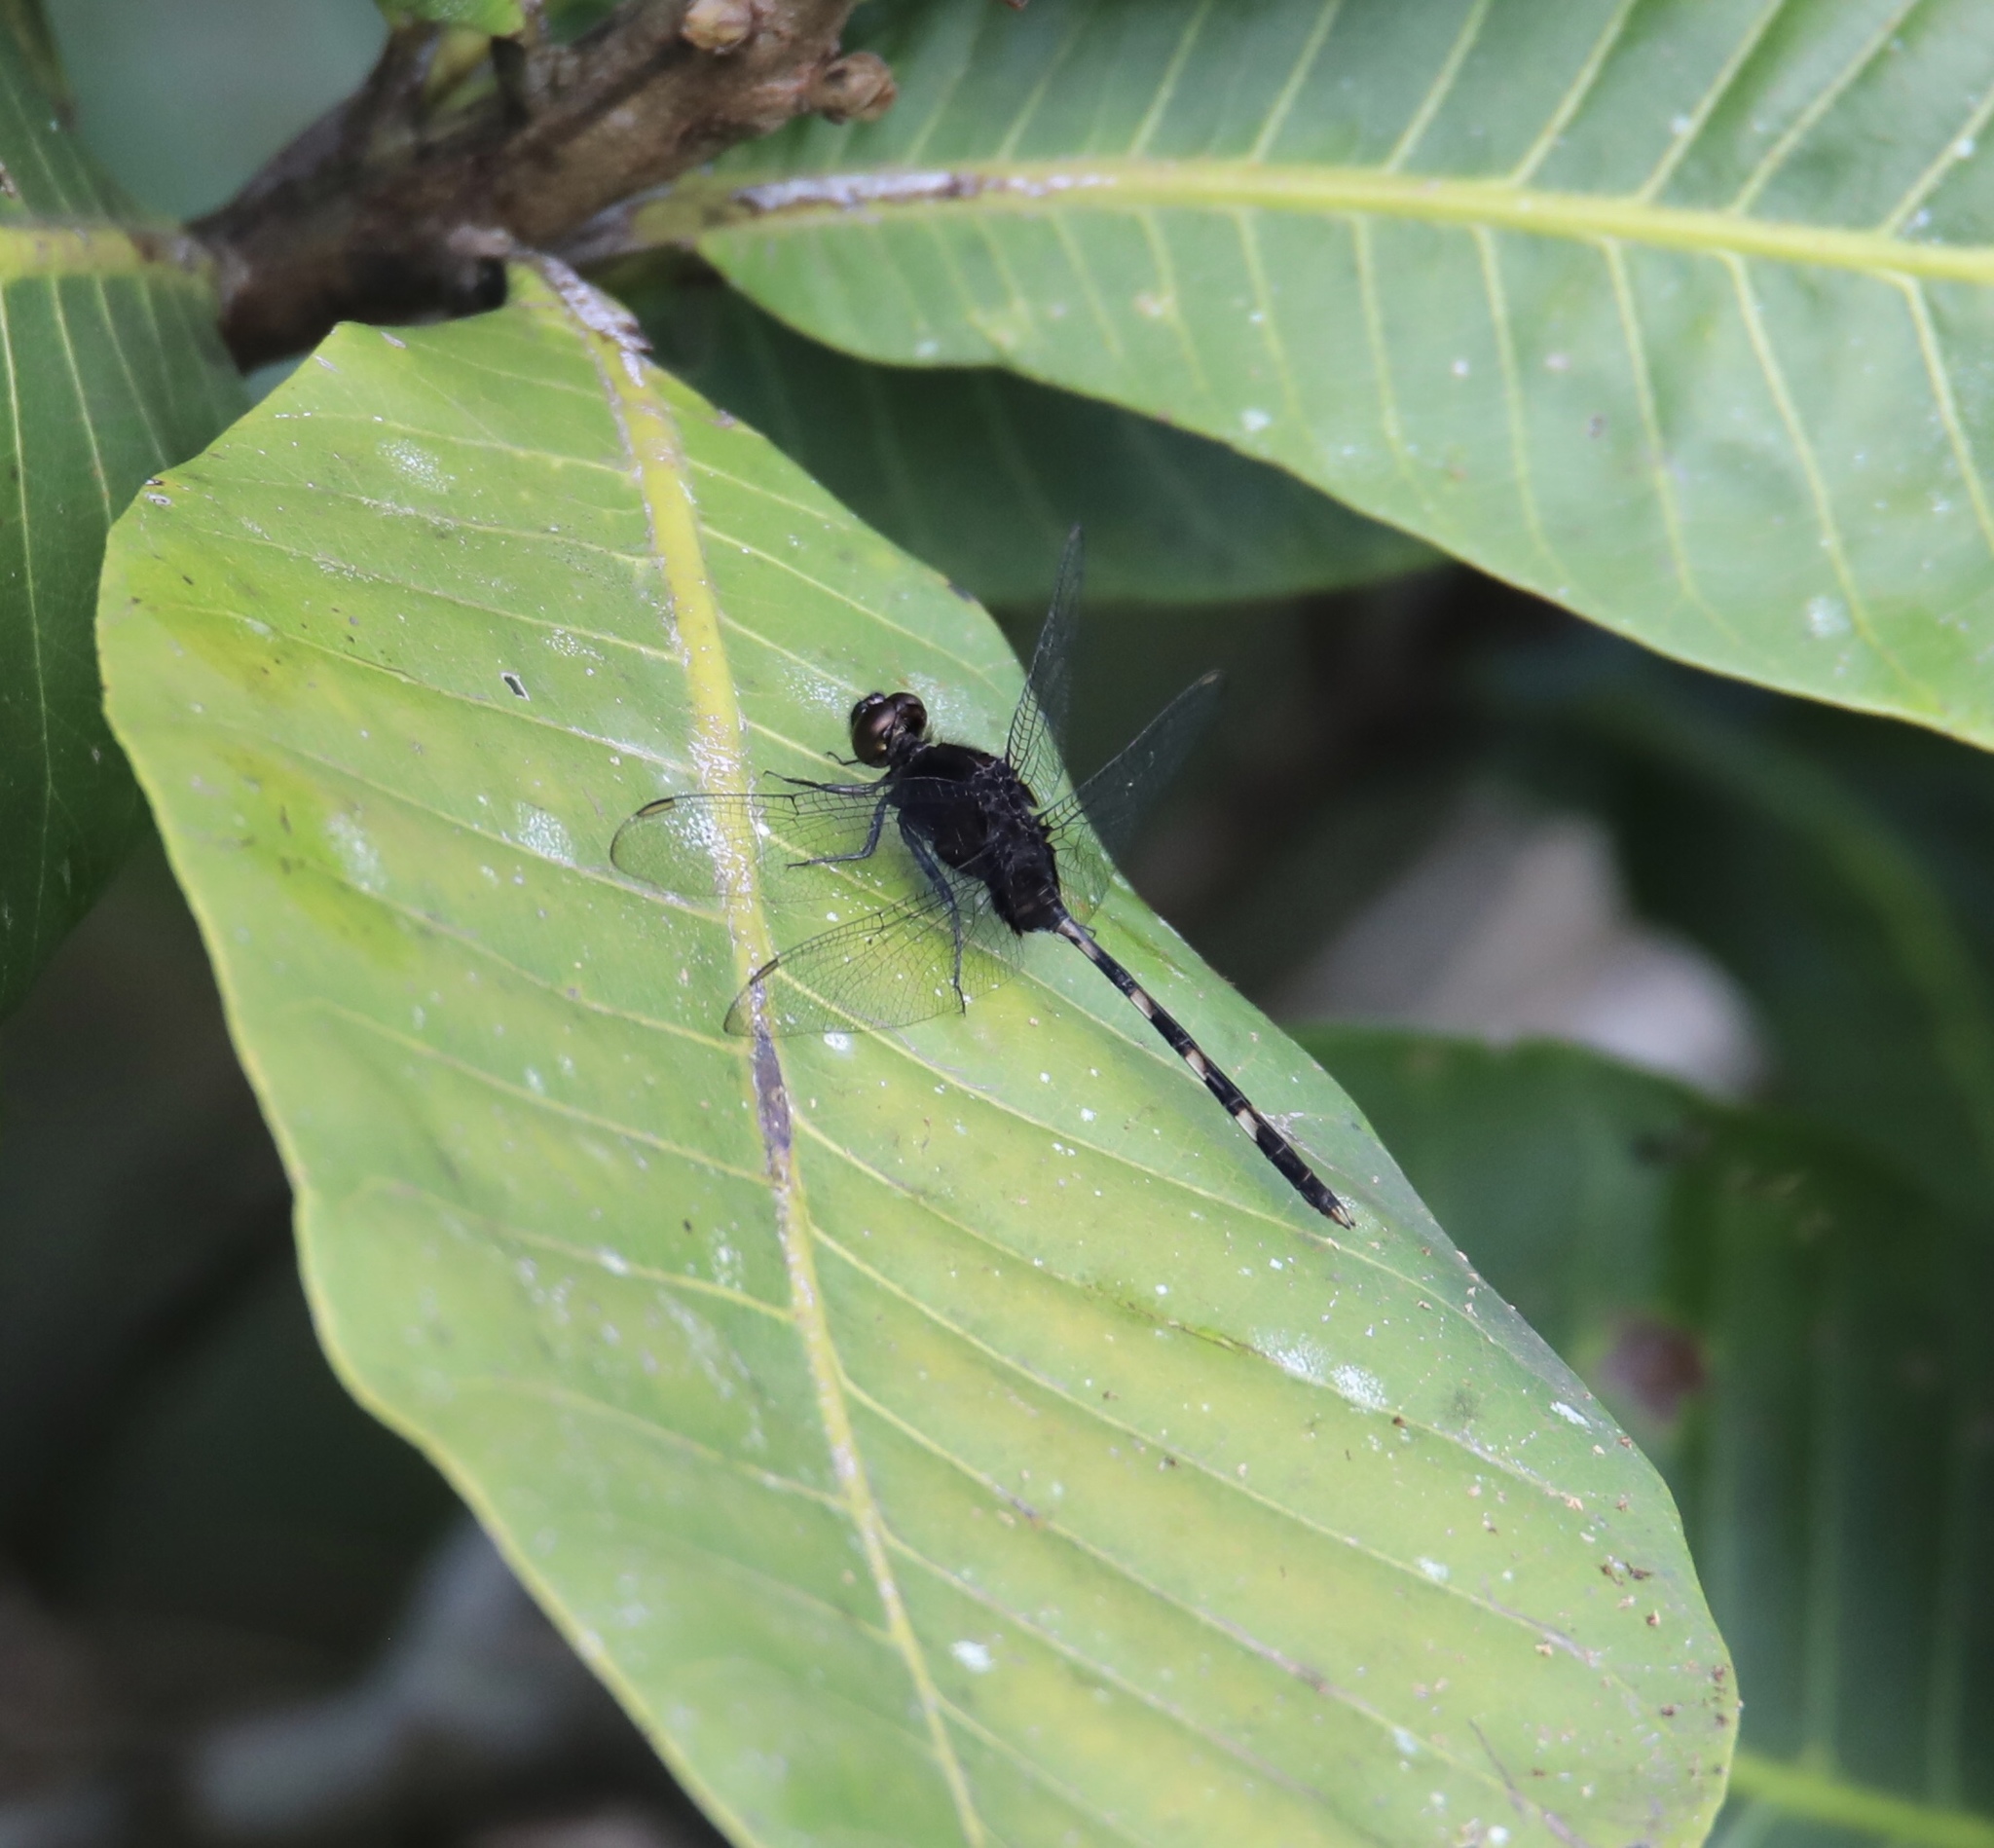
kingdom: Animalia
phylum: Arthropoda
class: Insecta
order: Odonata
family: Libellulidae
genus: Erythemis
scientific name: Erythemis plebeja
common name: Pin-tailed pondhawk
